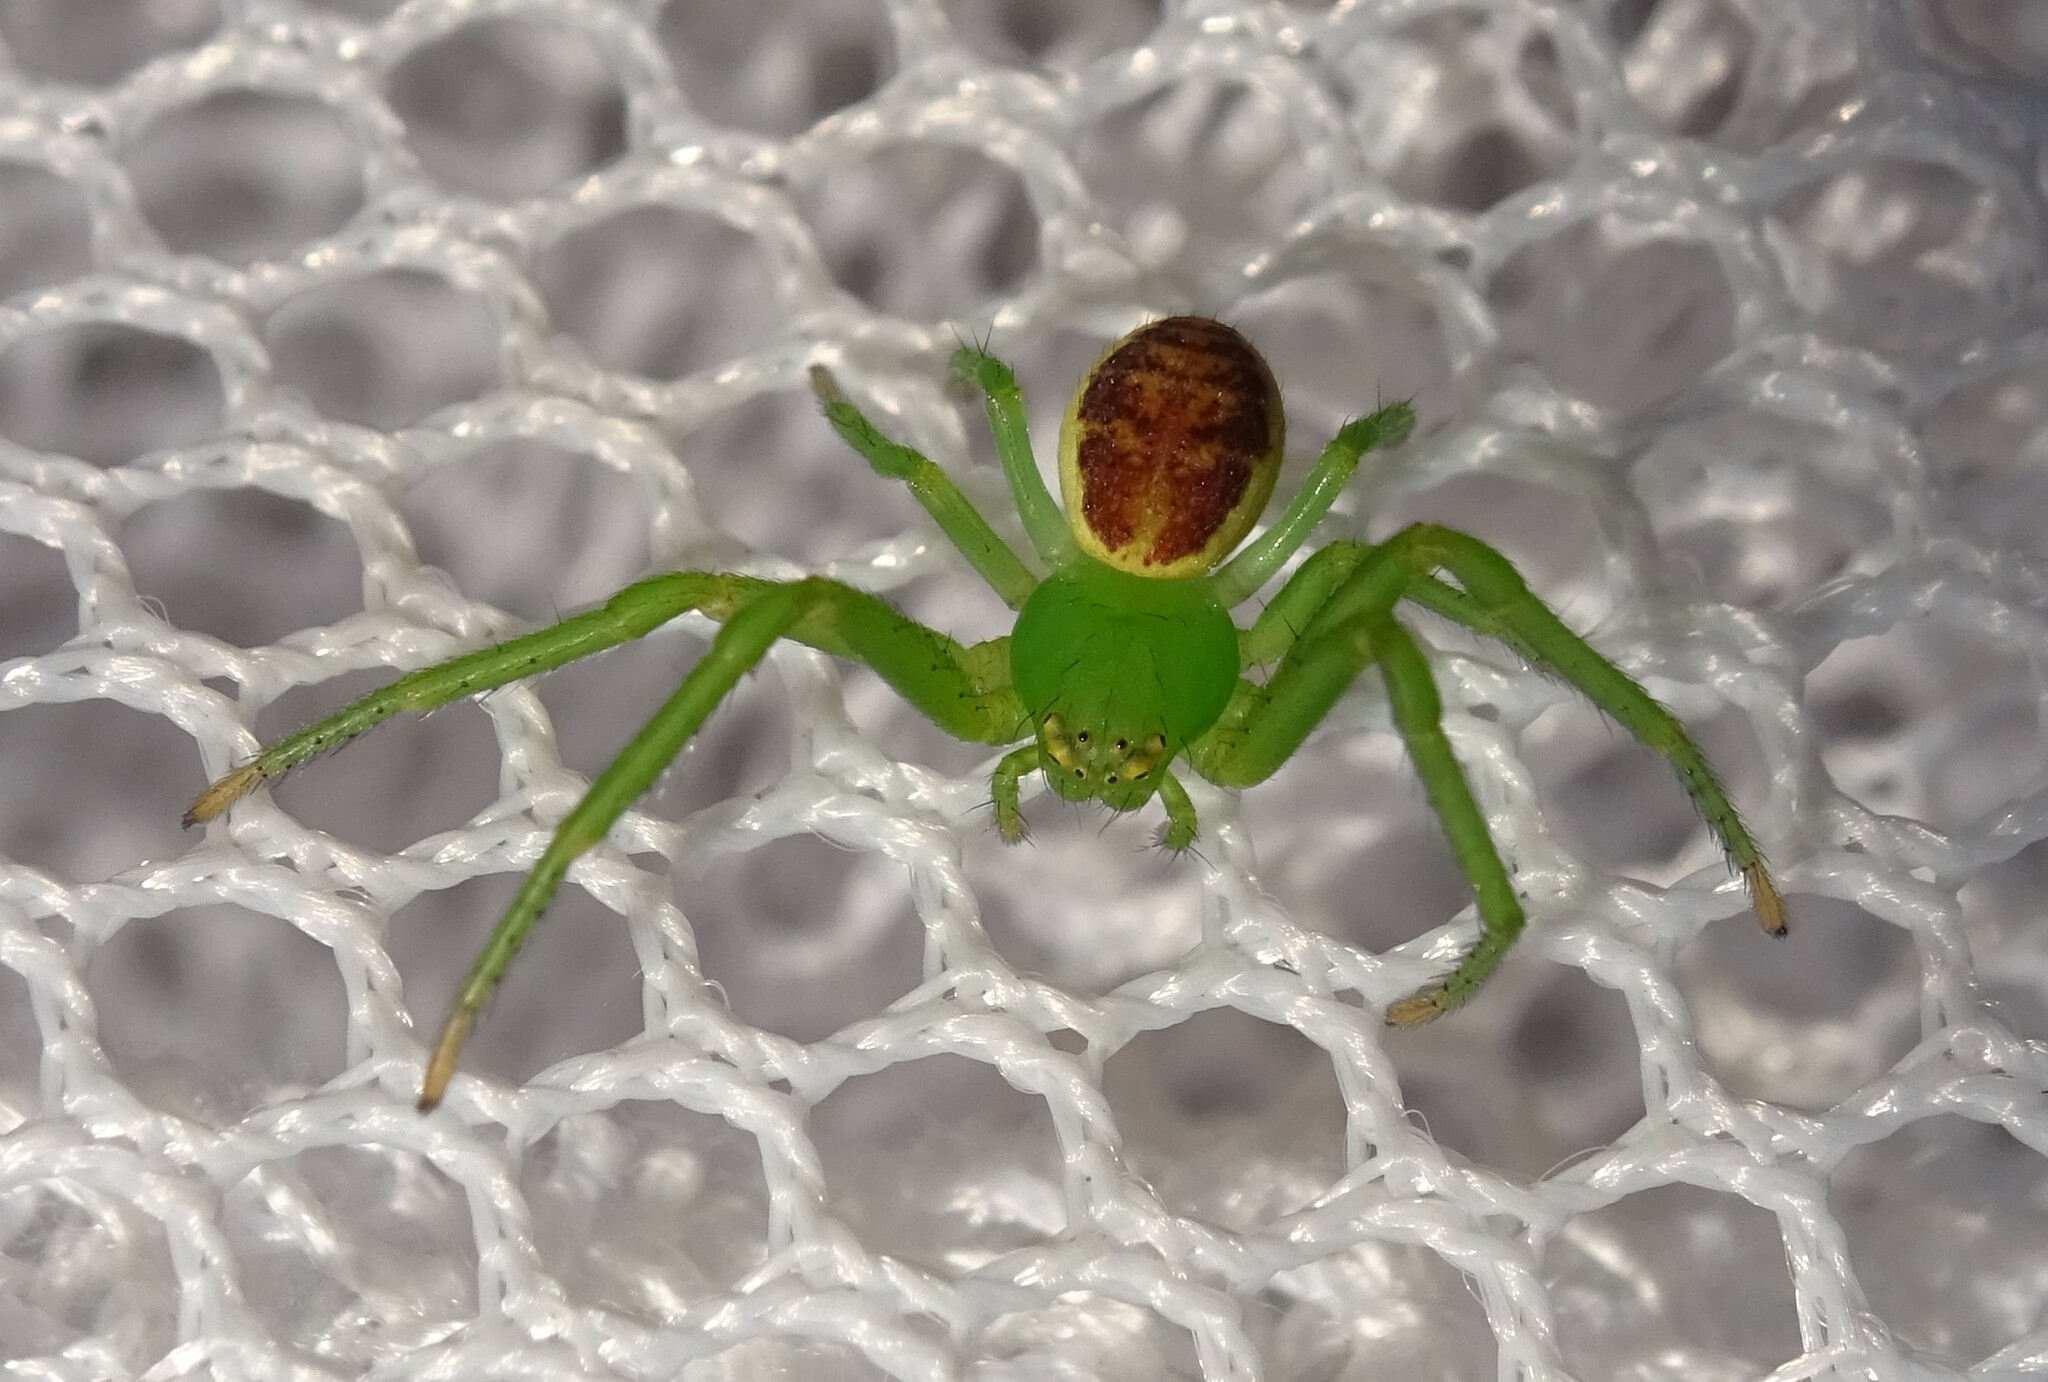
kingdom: Animalia
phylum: Arthropoda
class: Arachnida
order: Araneae
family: Thomisidae
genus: Diaea
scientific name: Diaea dorsata
